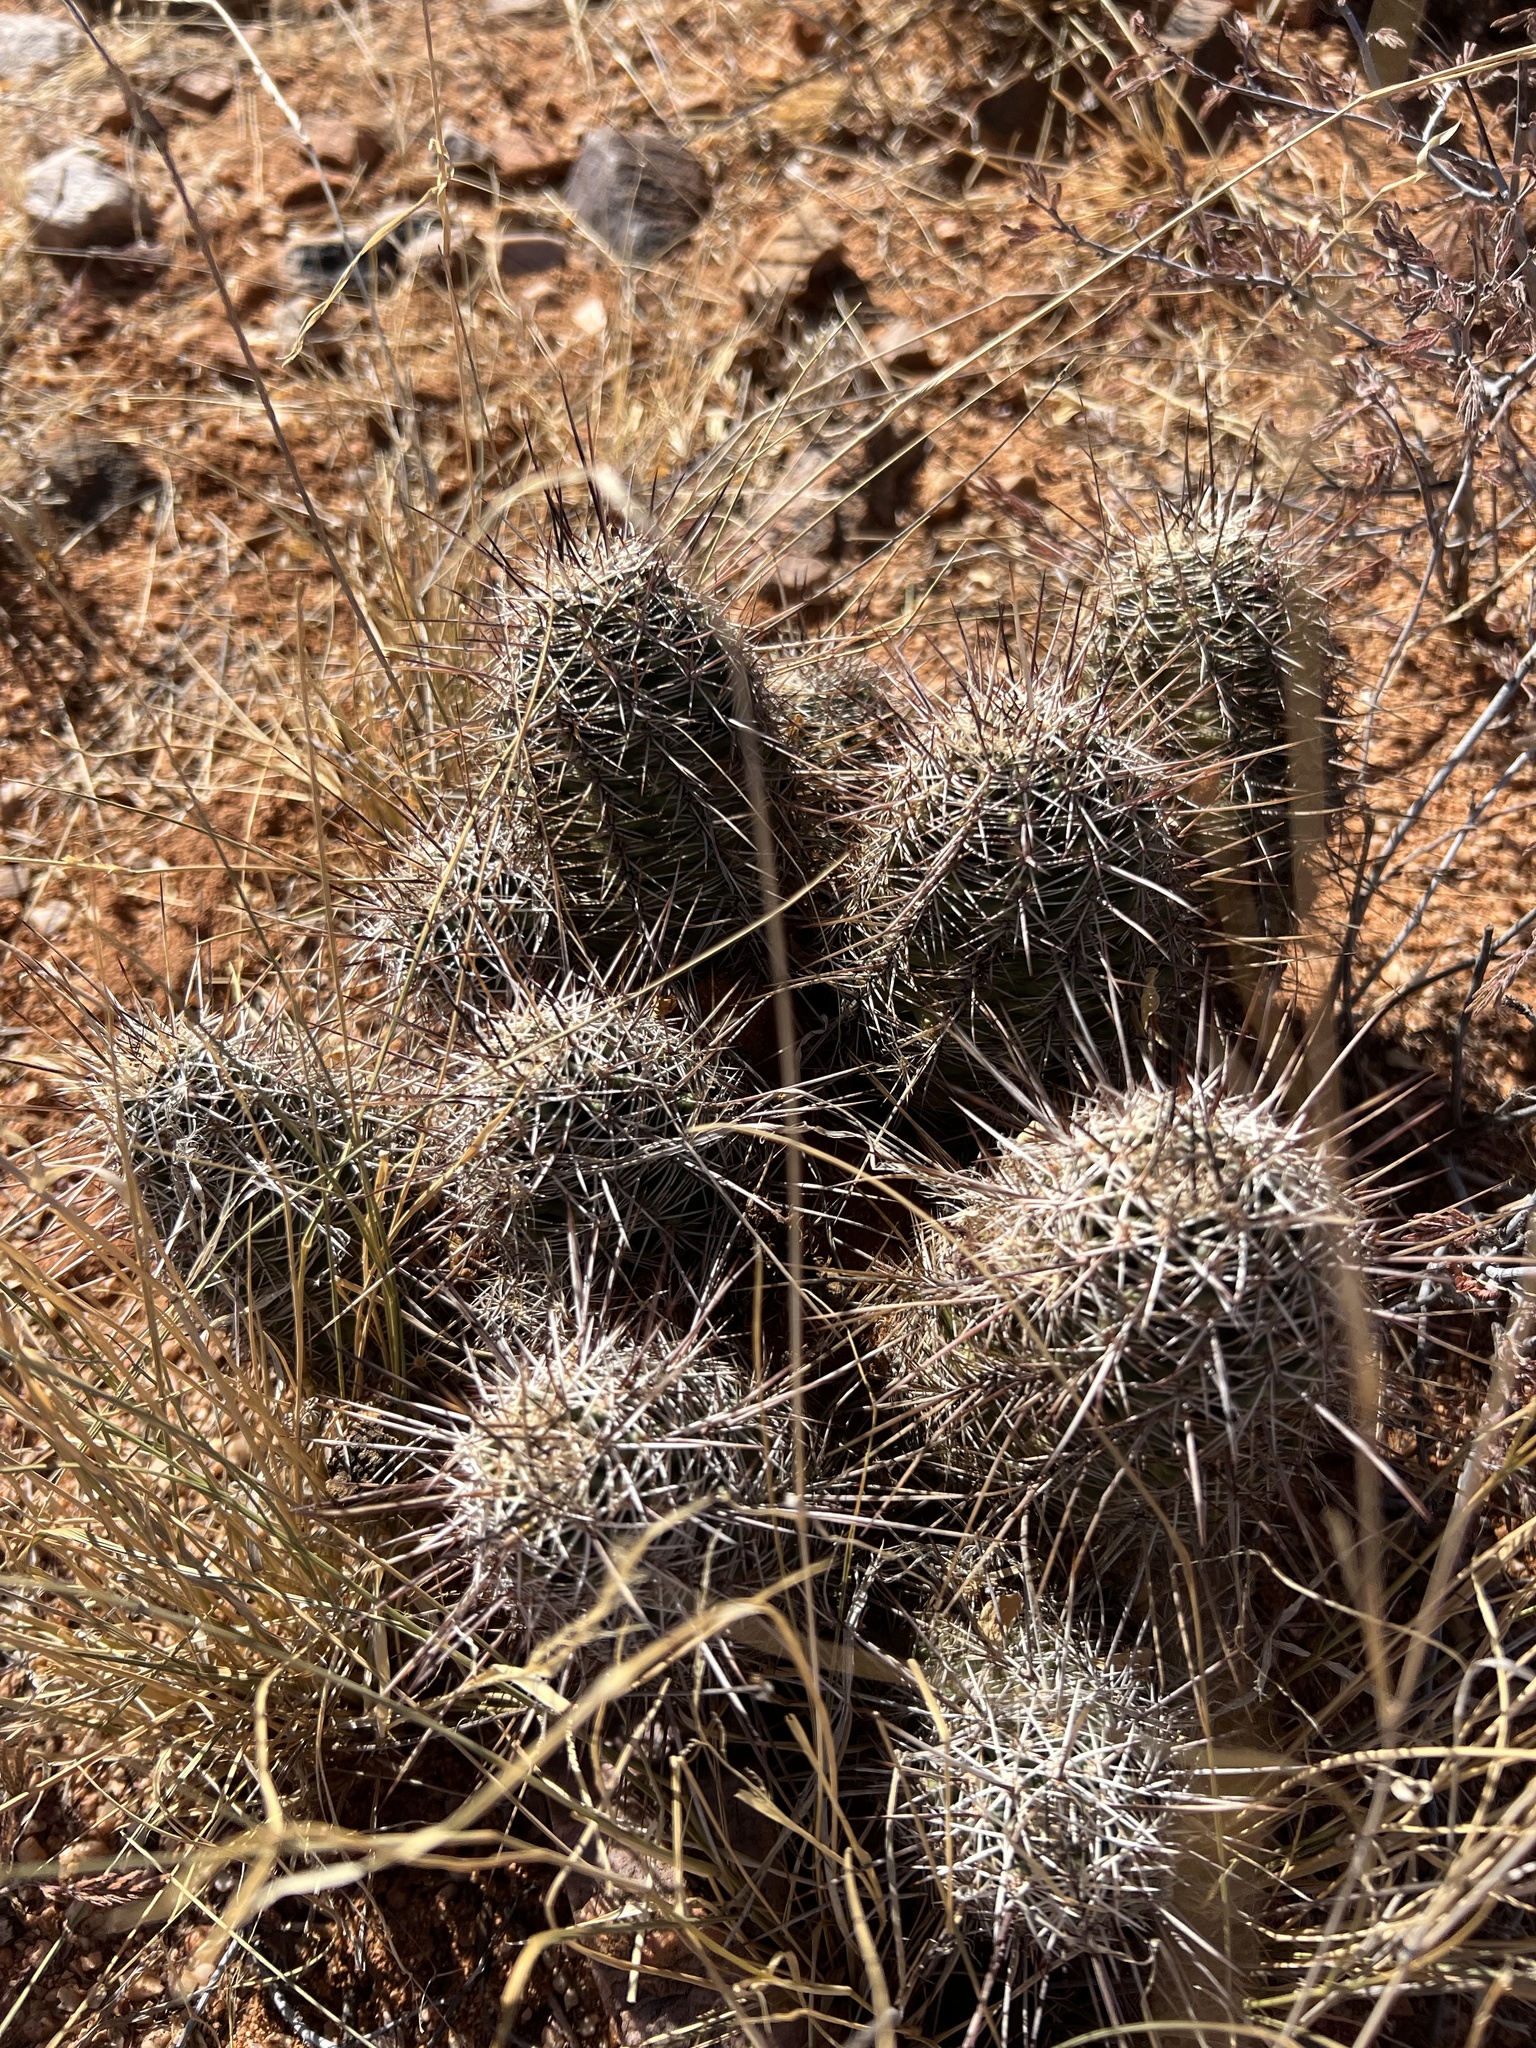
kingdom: Plantae
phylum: Tracheophyta
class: Magnoliopsida
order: Caryophyllales
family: Cactaceae
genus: Echinocereus
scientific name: Echinocereus fasciculatus
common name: Bundle hedgehog
